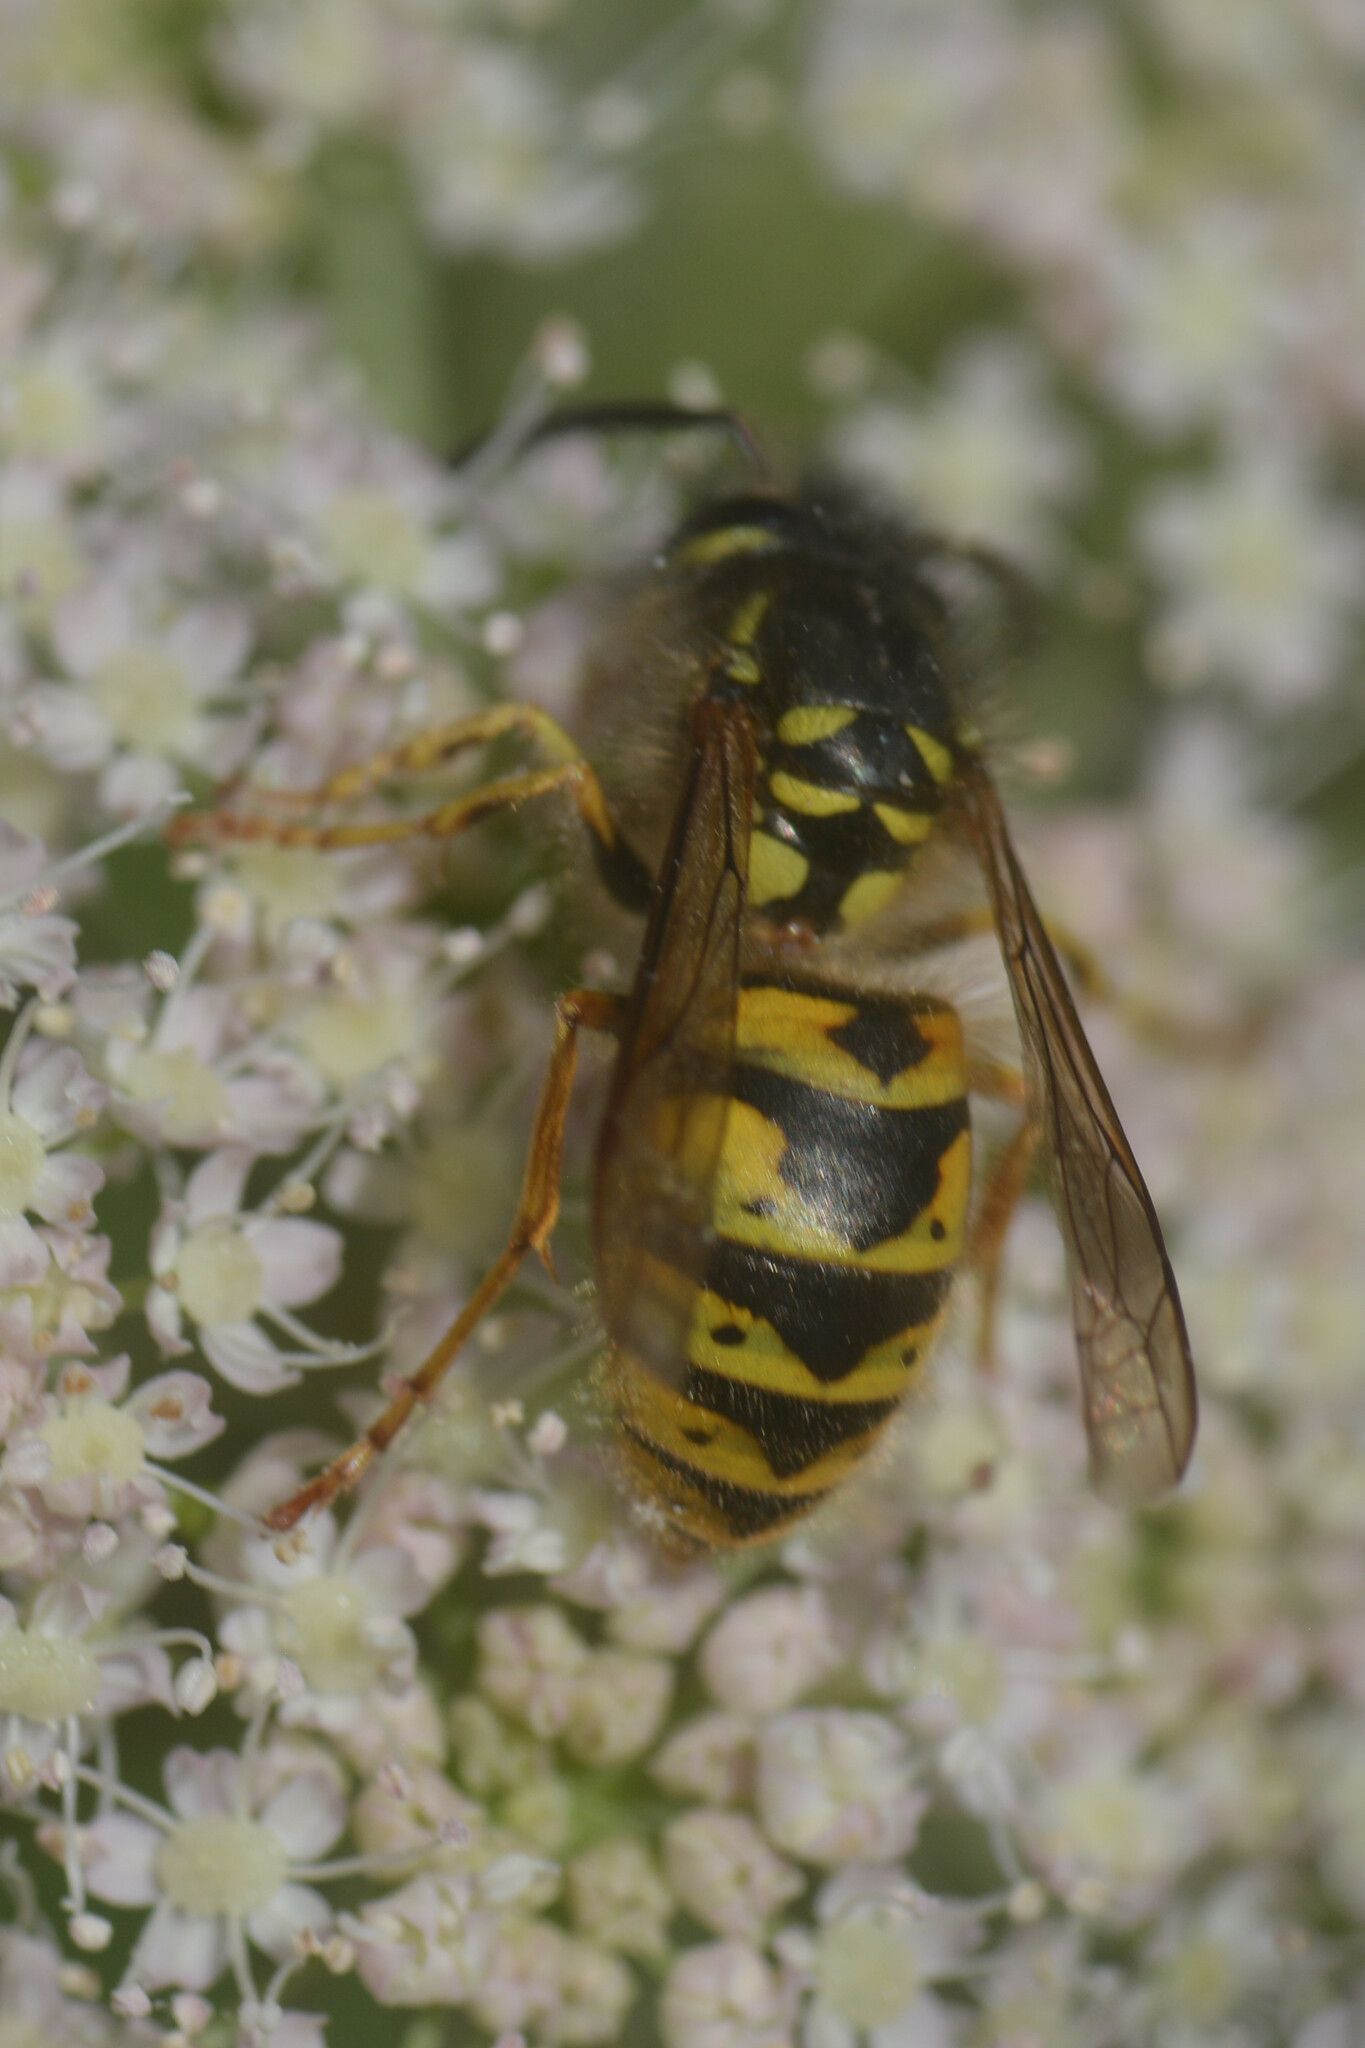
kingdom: Animalia
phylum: Arthropoda
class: Insecta
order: Hymenoptera
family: Vespidae
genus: Vespula
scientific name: Vespula vulgaris
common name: Common wasp
